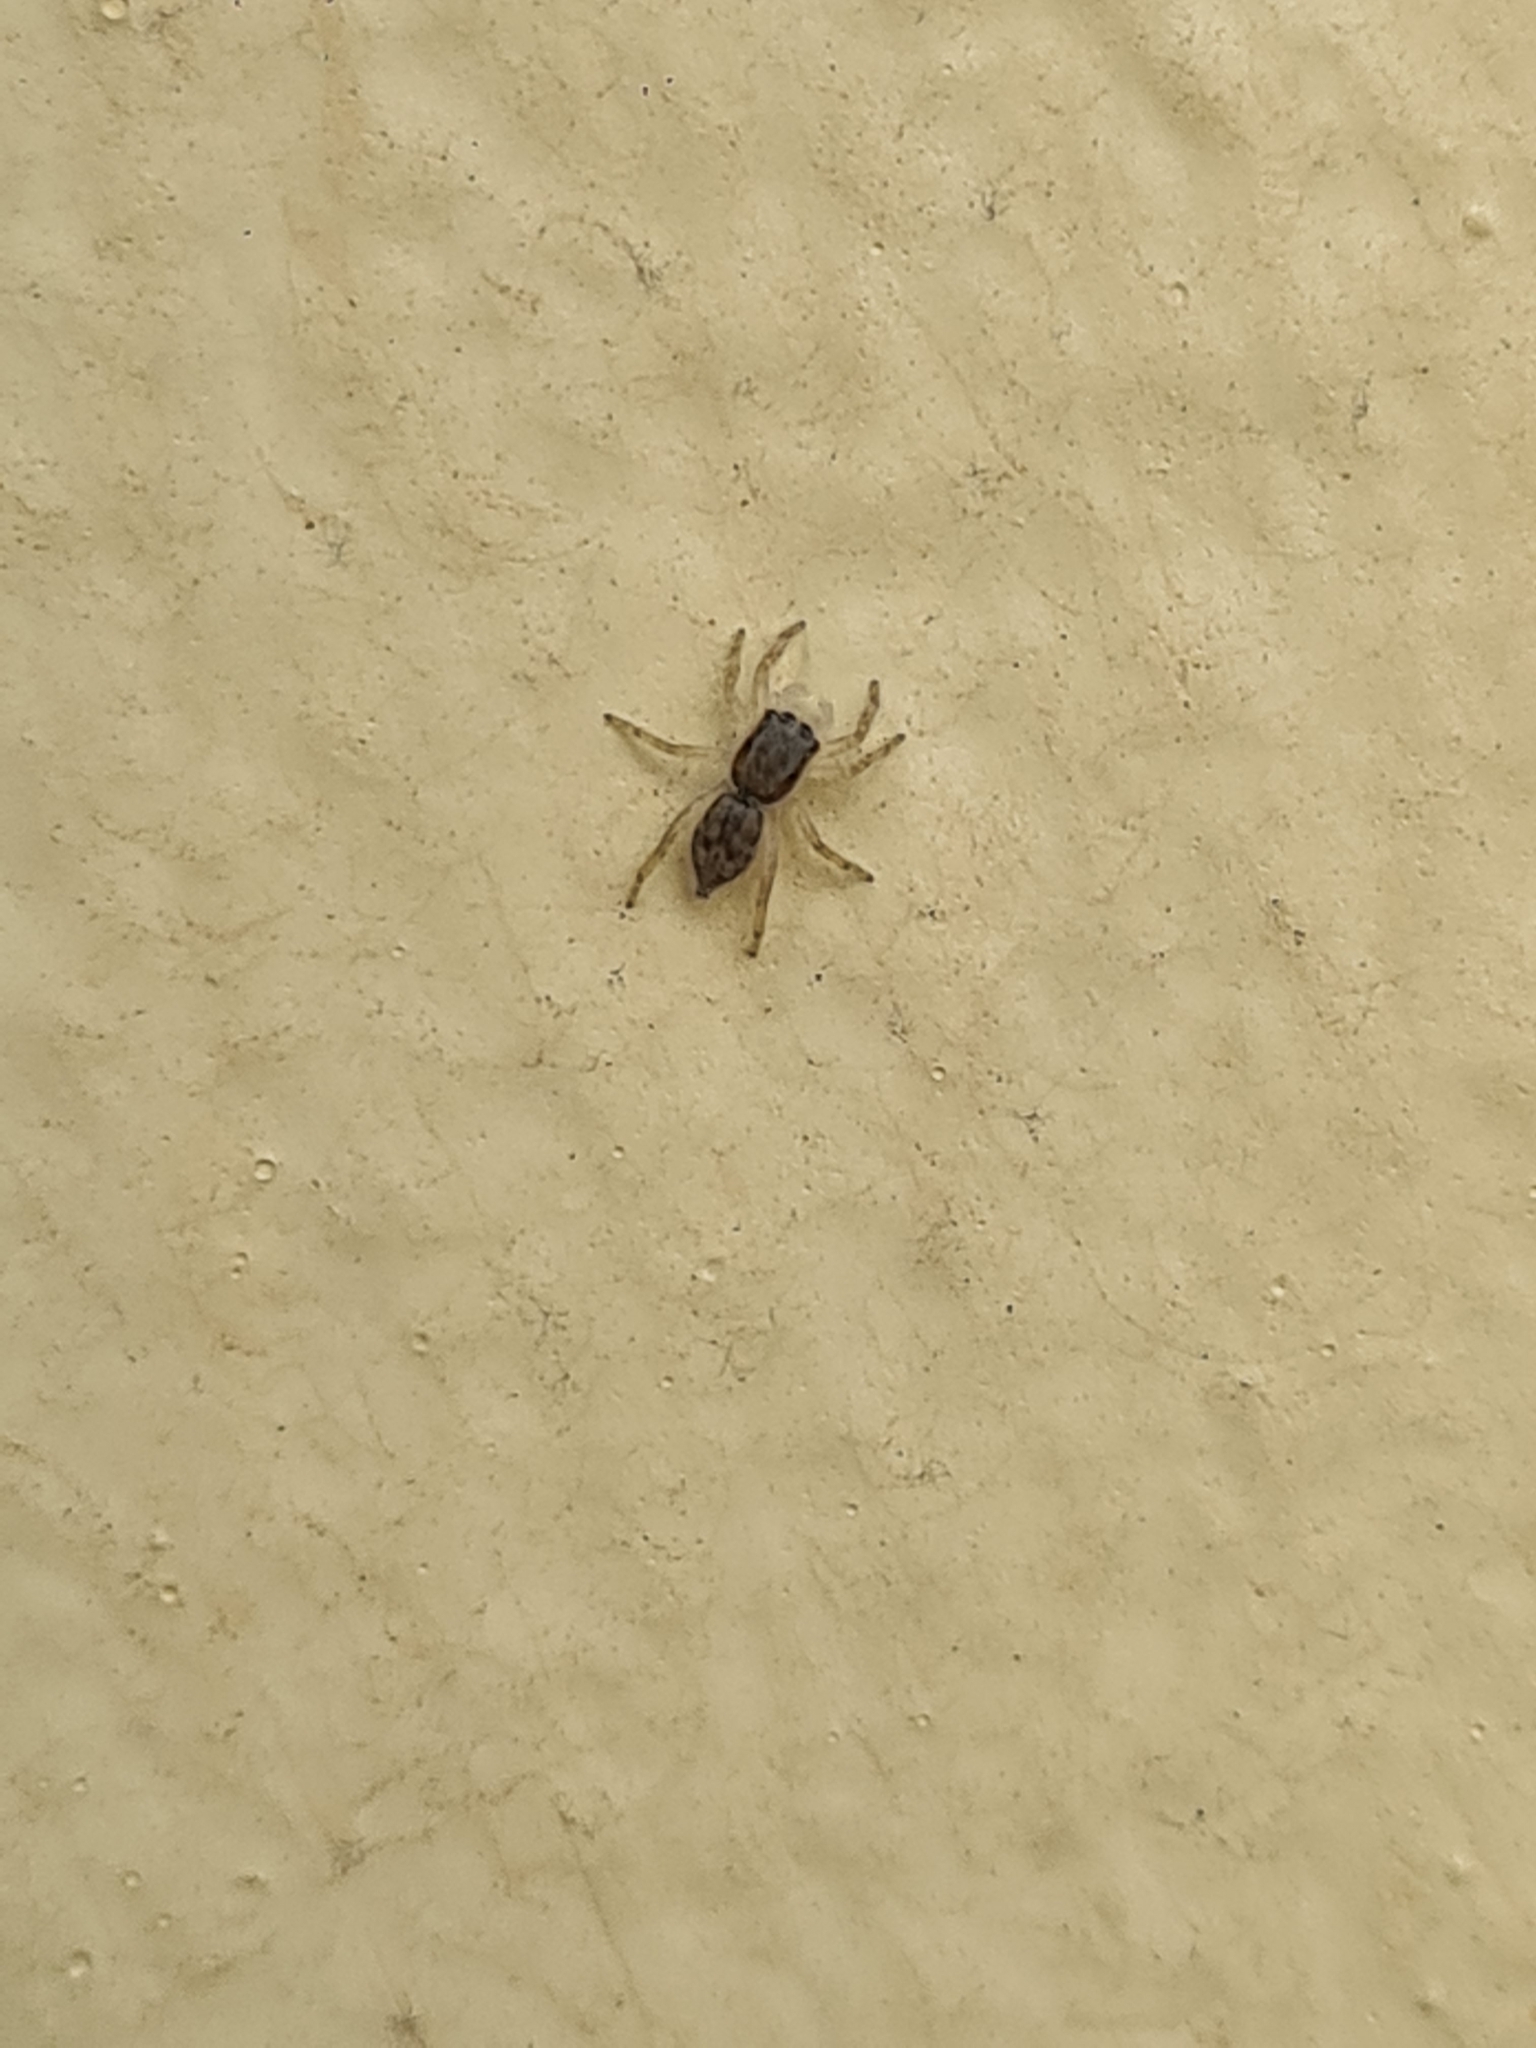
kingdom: Animalia
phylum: Arthropoda
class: Arachnida
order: Araneae
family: Salticidae
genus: Menemerus
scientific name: Menemerus bivittatus
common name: Gray wall jumper
